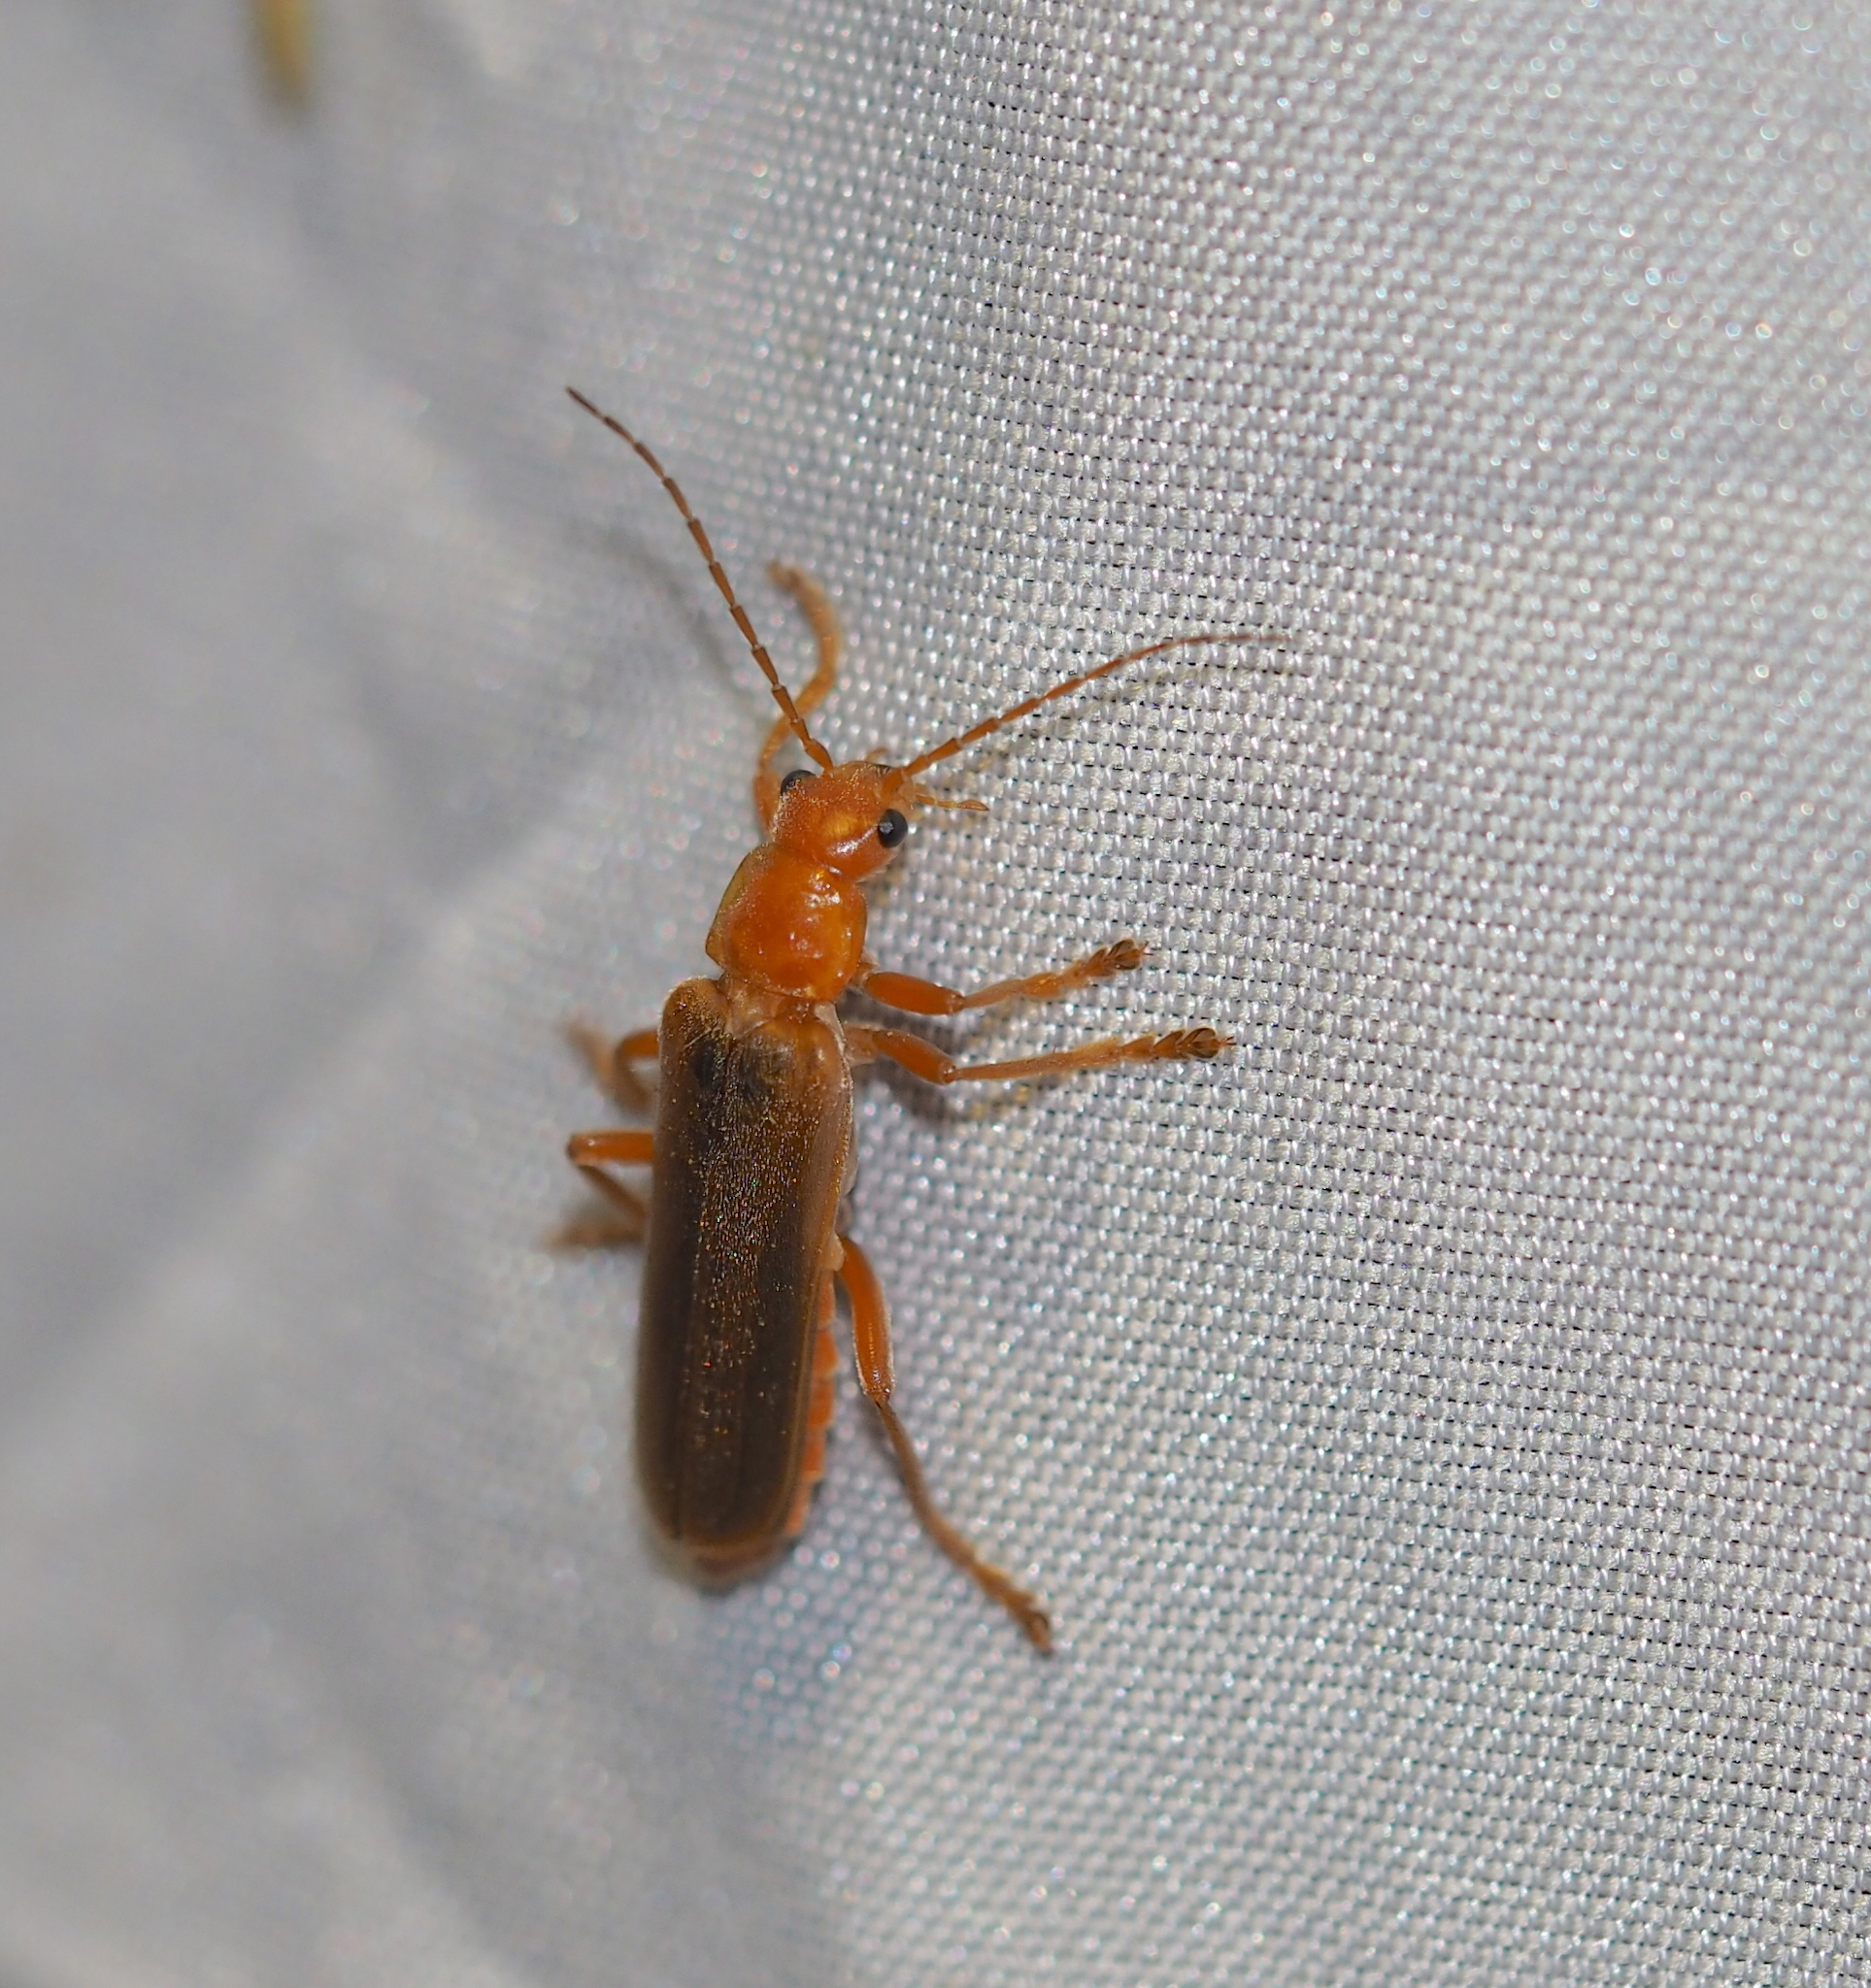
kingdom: Animalia
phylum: Arthropoda
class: Insecta
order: Coleoptera
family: Cantharidae
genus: Cantharis
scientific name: Cantharis rufa
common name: Red-spotted soldier beetle
